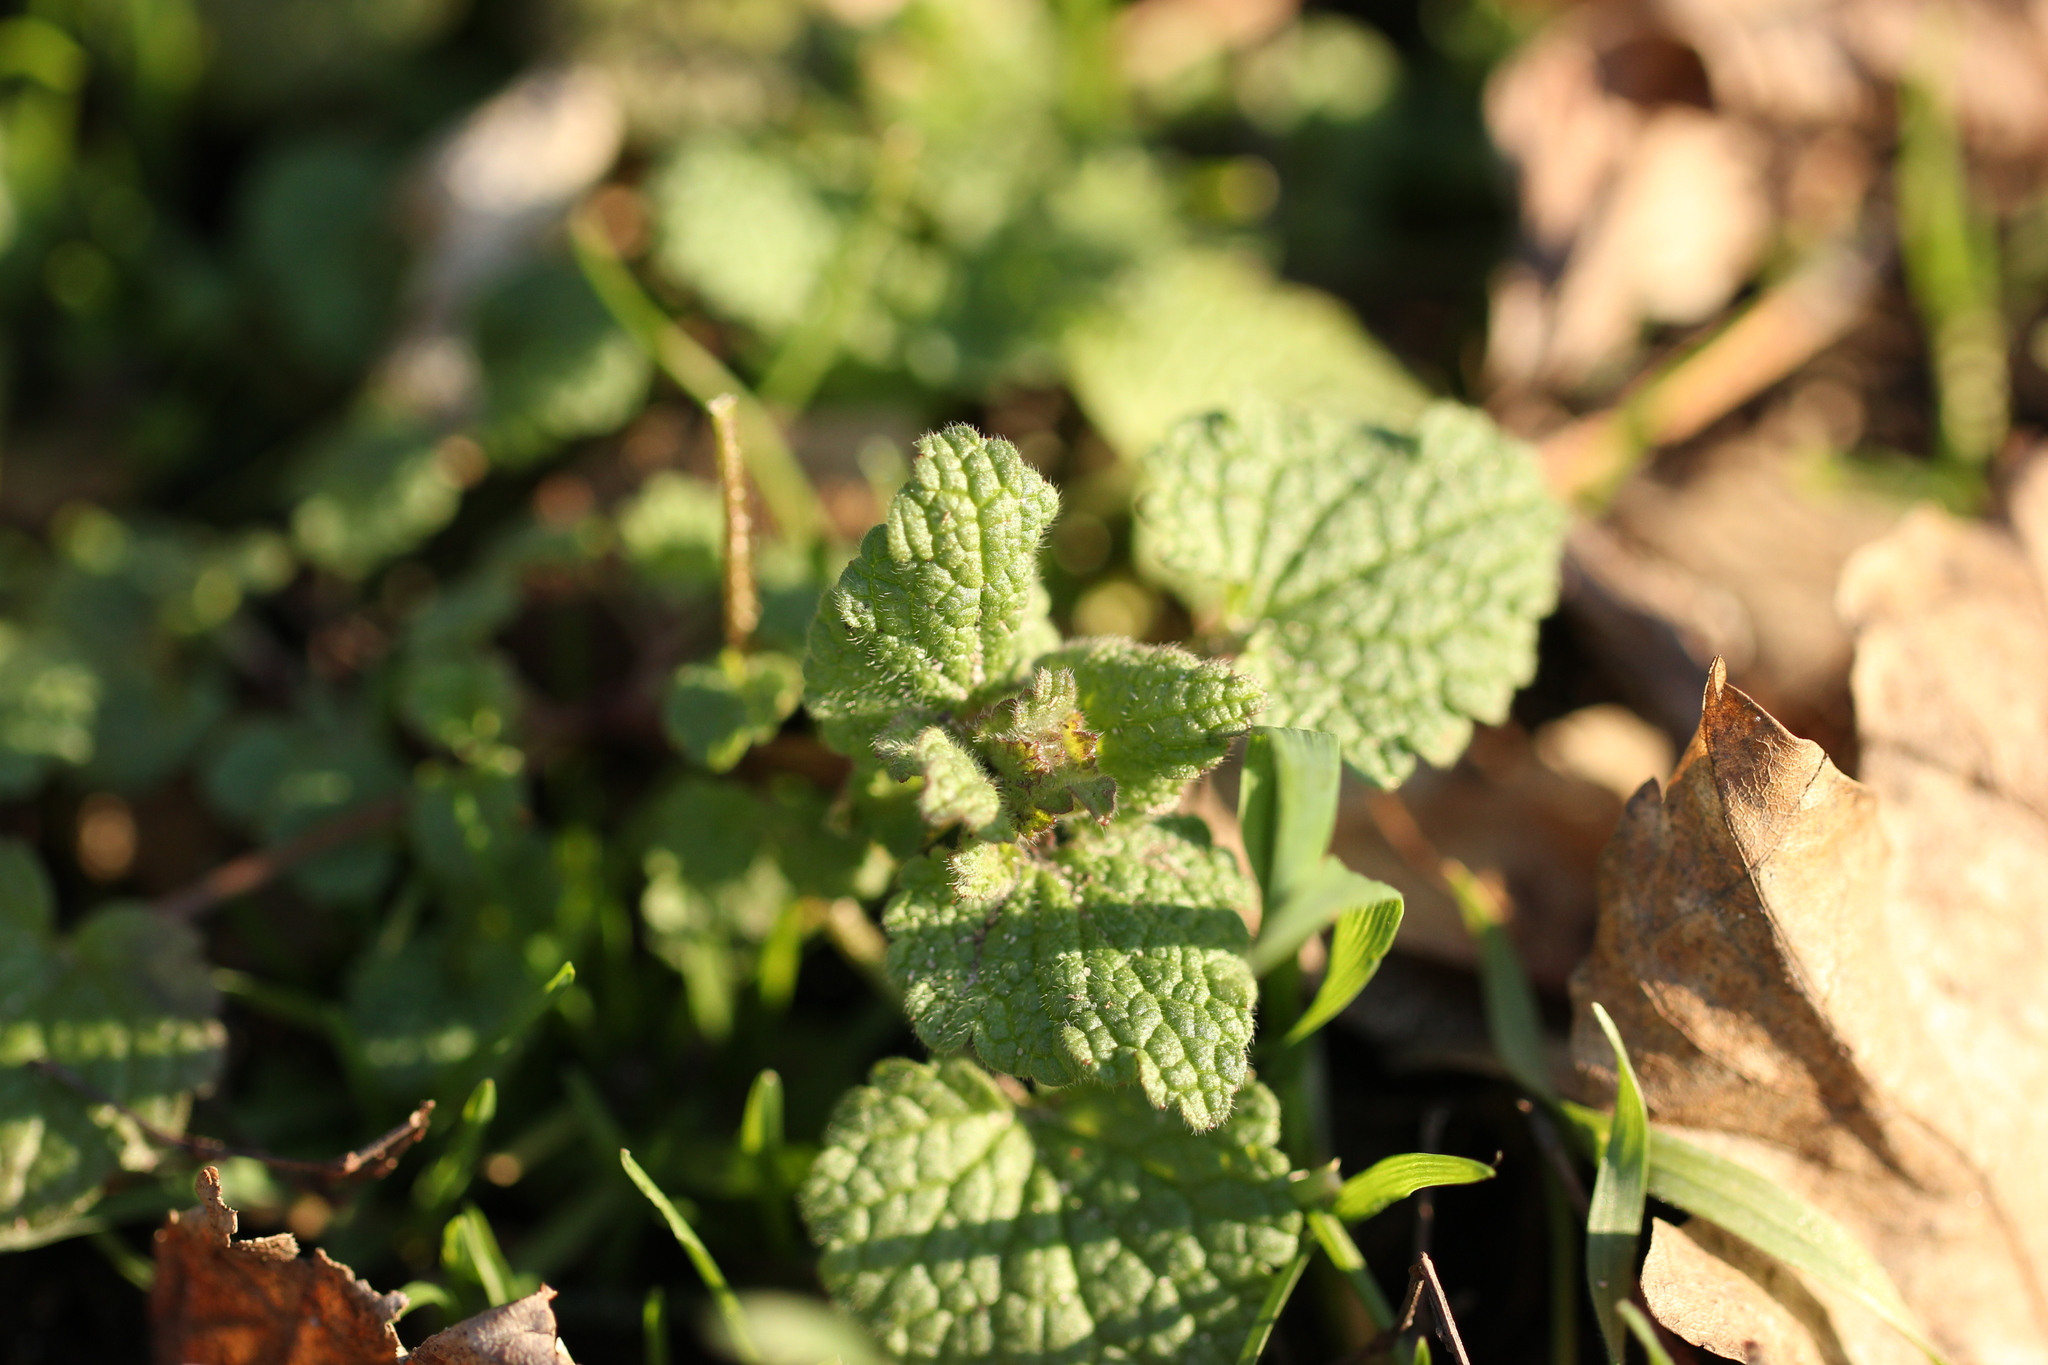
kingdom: Plantae
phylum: Tracheophyta
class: Magnoliopsida
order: Lamiales
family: Lamiaceae
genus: Lamium
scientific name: Lamium purpureum
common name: Red dead-nettle
